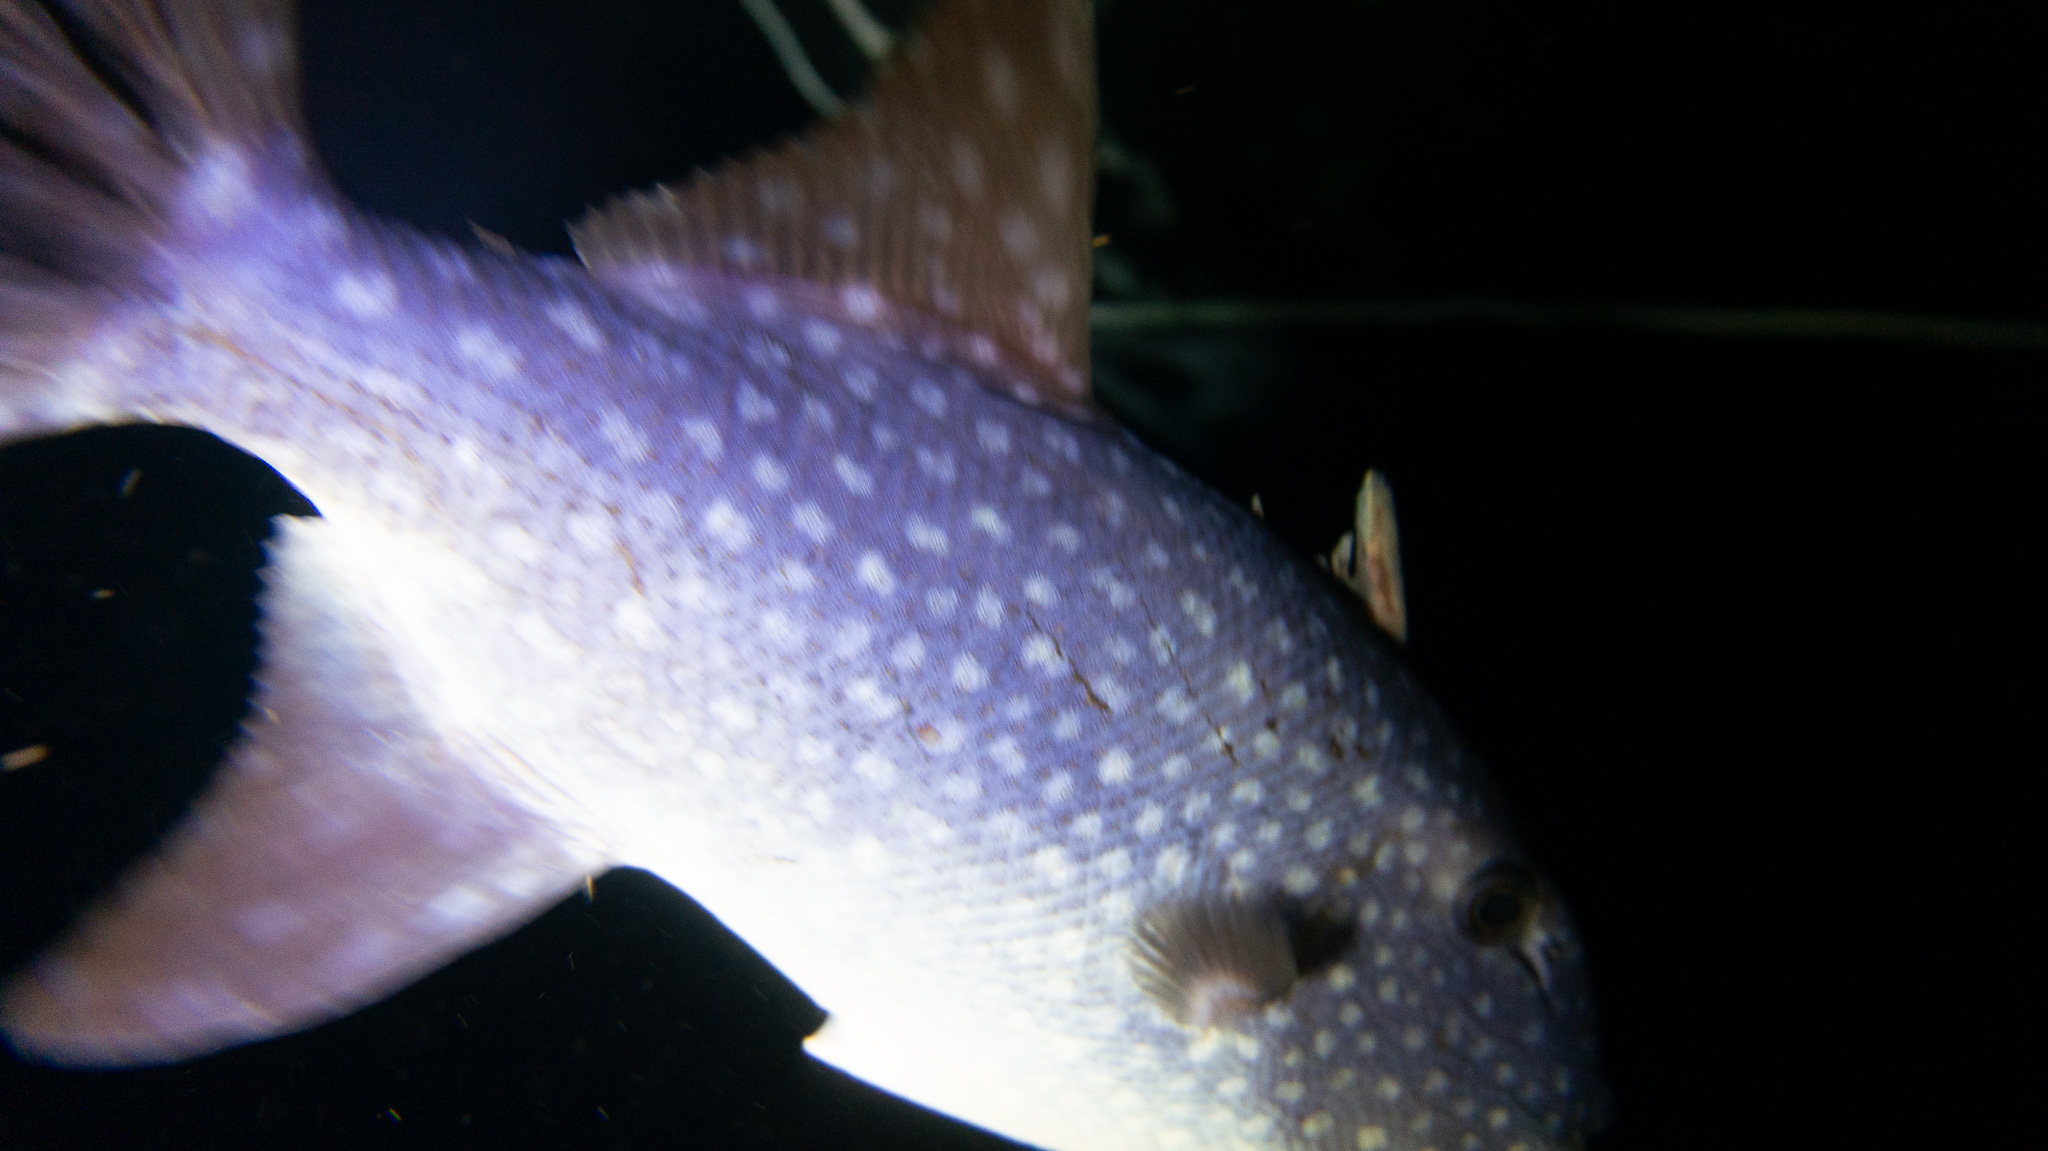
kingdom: Animalia
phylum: Chordata
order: Tetraodontiformes
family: Balistidae
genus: Canthidermis
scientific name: Canthidermis maculata
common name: Rough triggerfish
